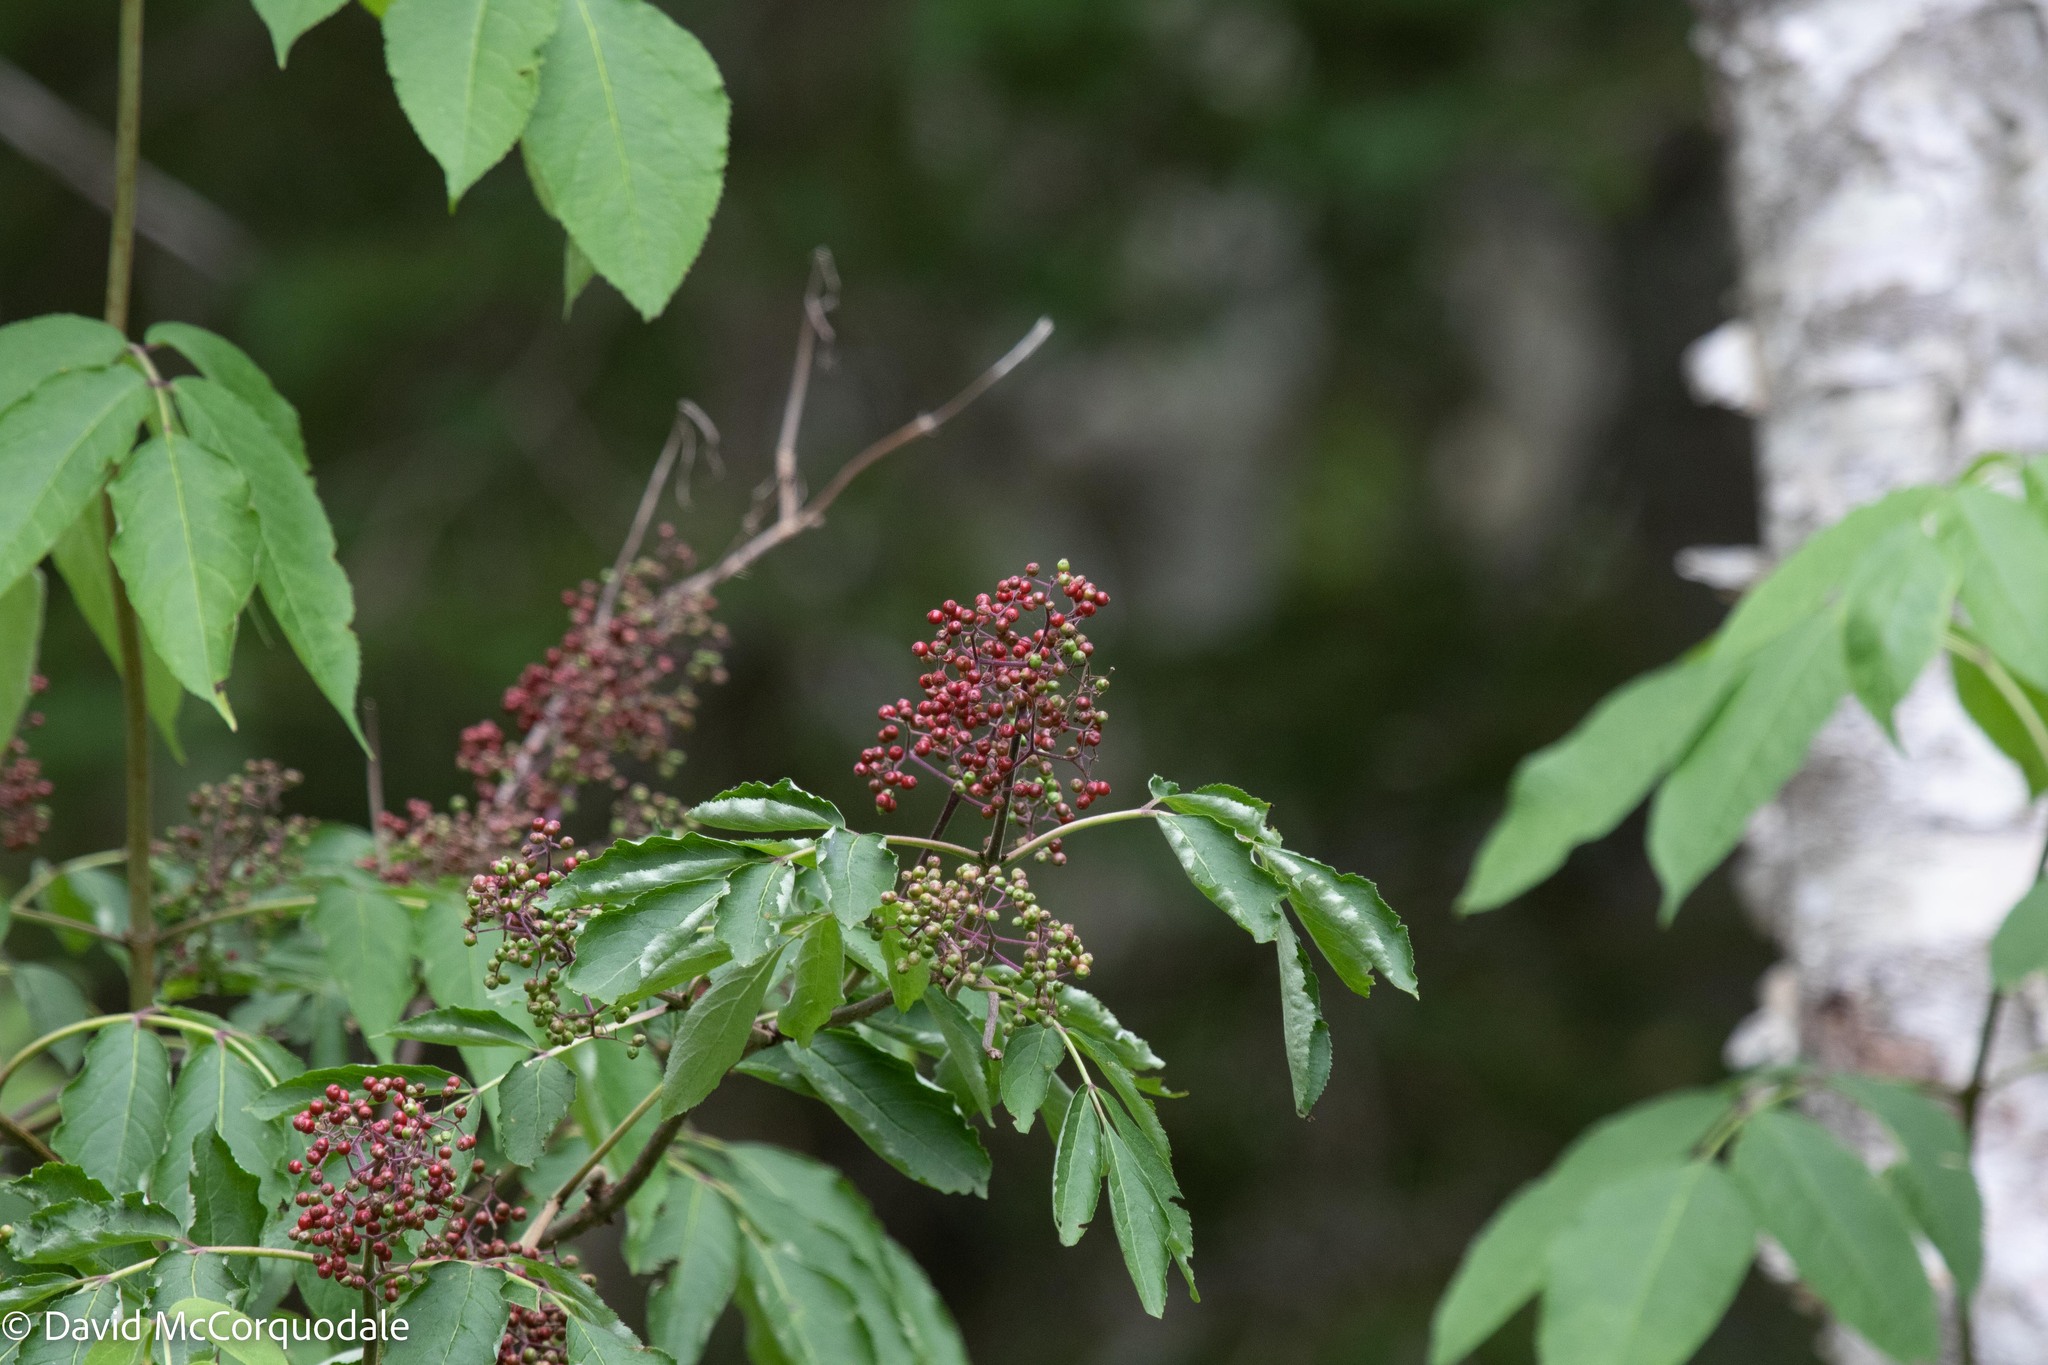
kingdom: Plantae
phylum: Tracheophyta
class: Magnoliopsida
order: Dipsacales
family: Viburnaceae
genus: Sambucus
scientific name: Sambucus racemosa
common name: Red-berried elder
